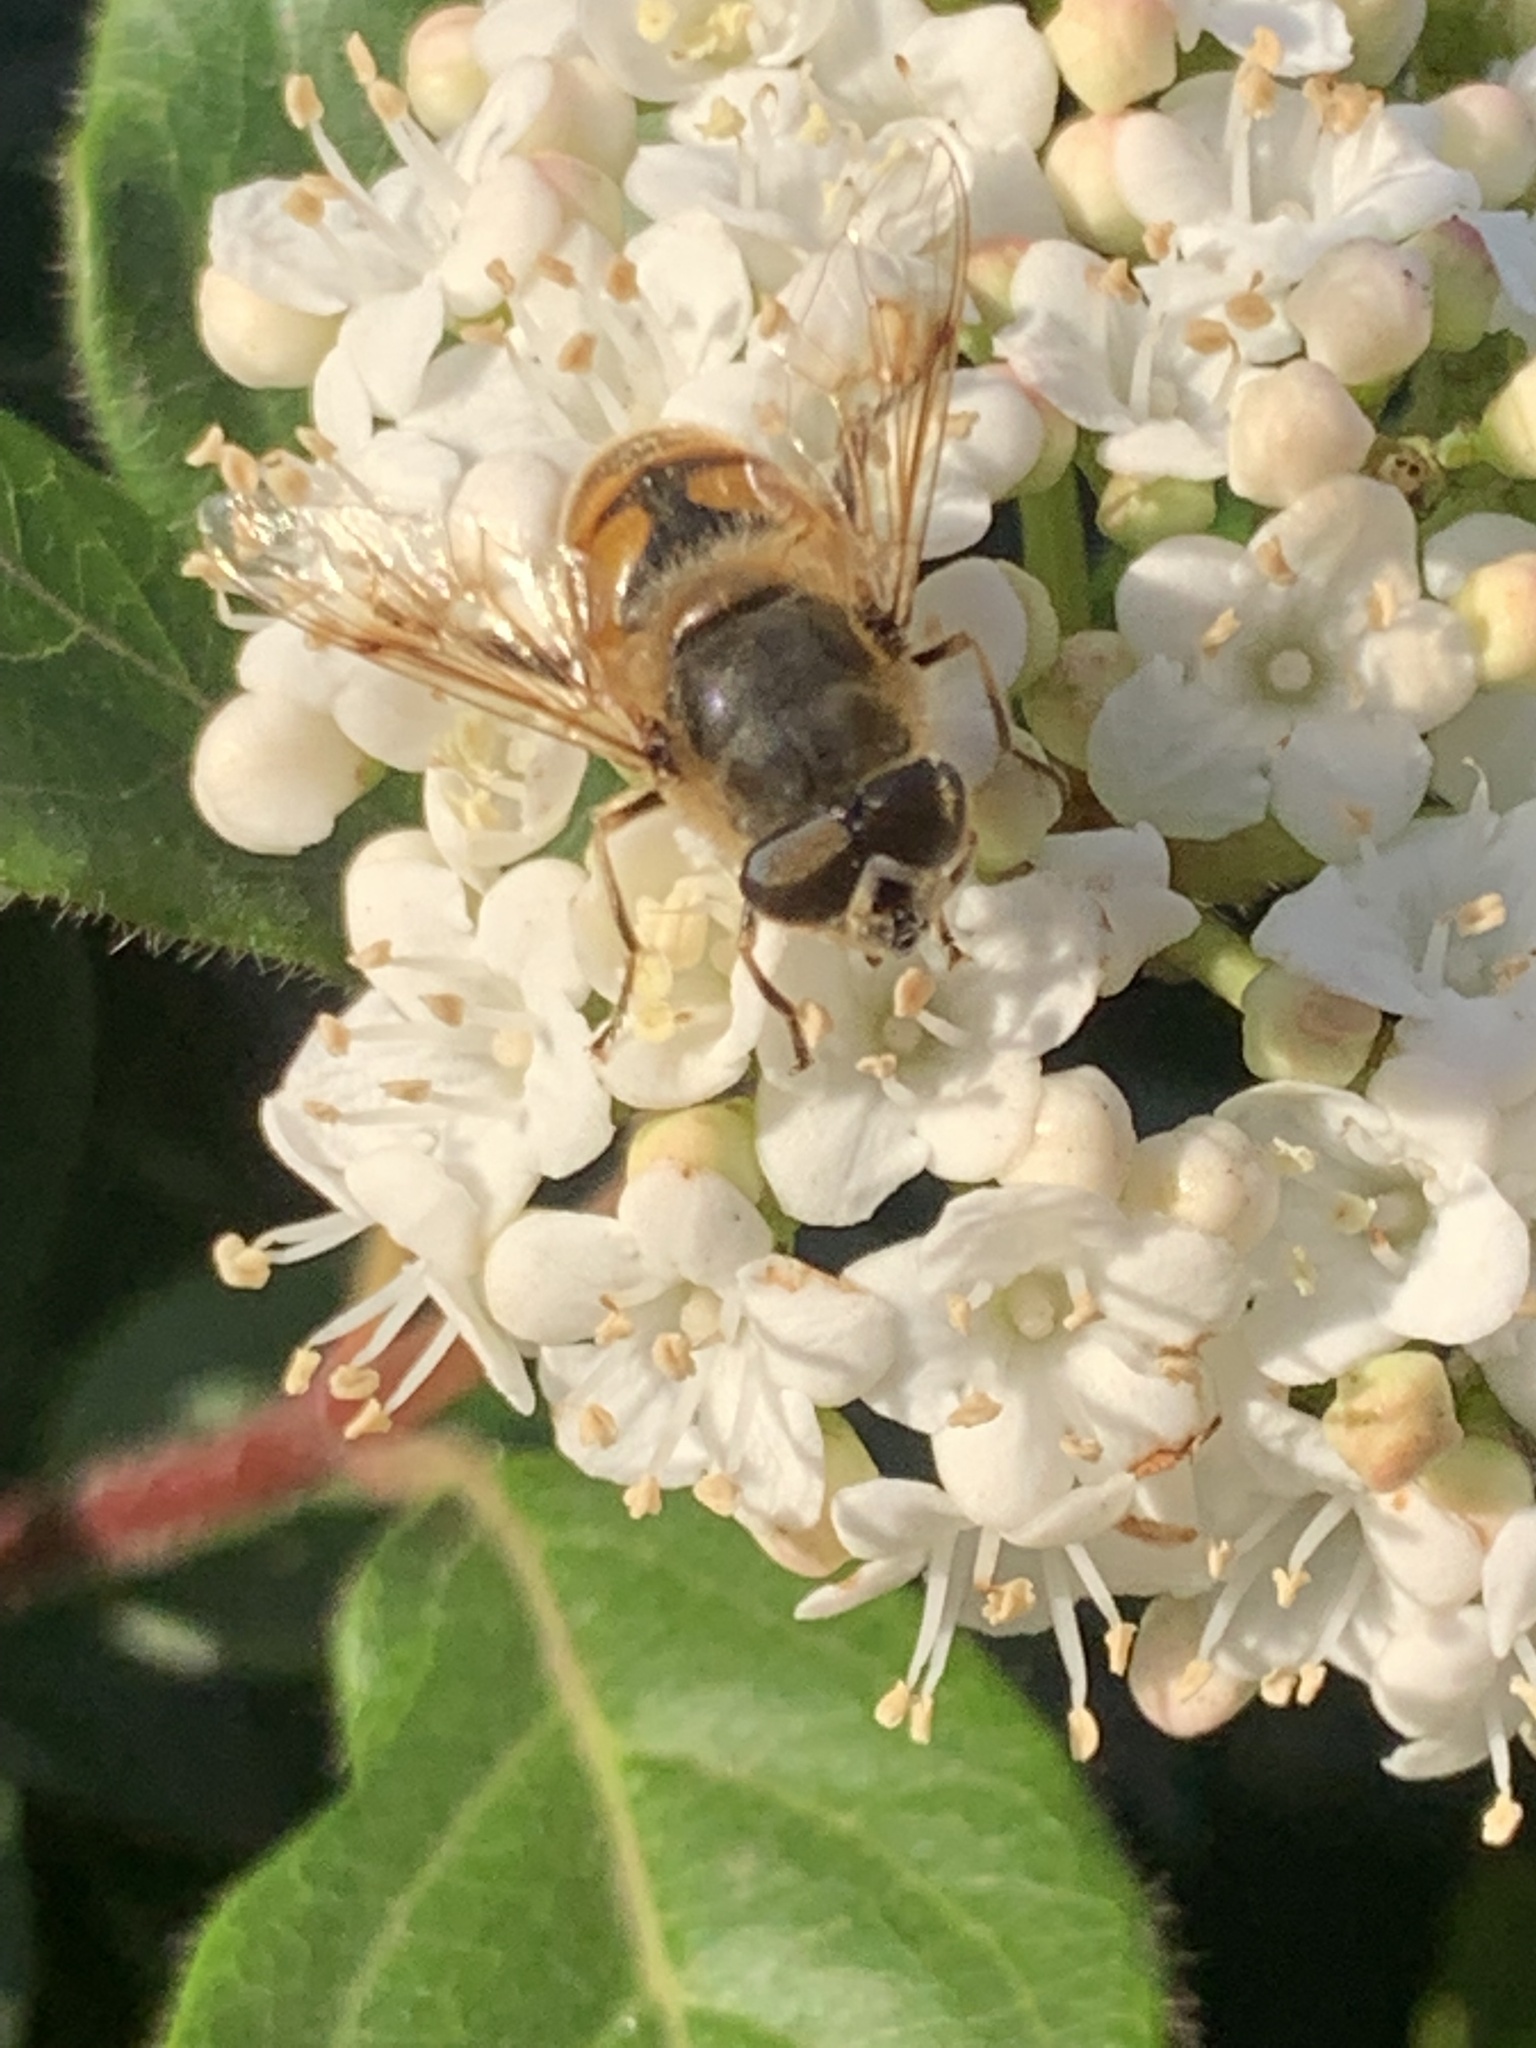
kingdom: Animalia
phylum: Arthropoda
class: Insecta
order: Diptera
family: Syrphidae
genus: Eristalis
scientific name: Eristalis tenax
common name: Drone fly
